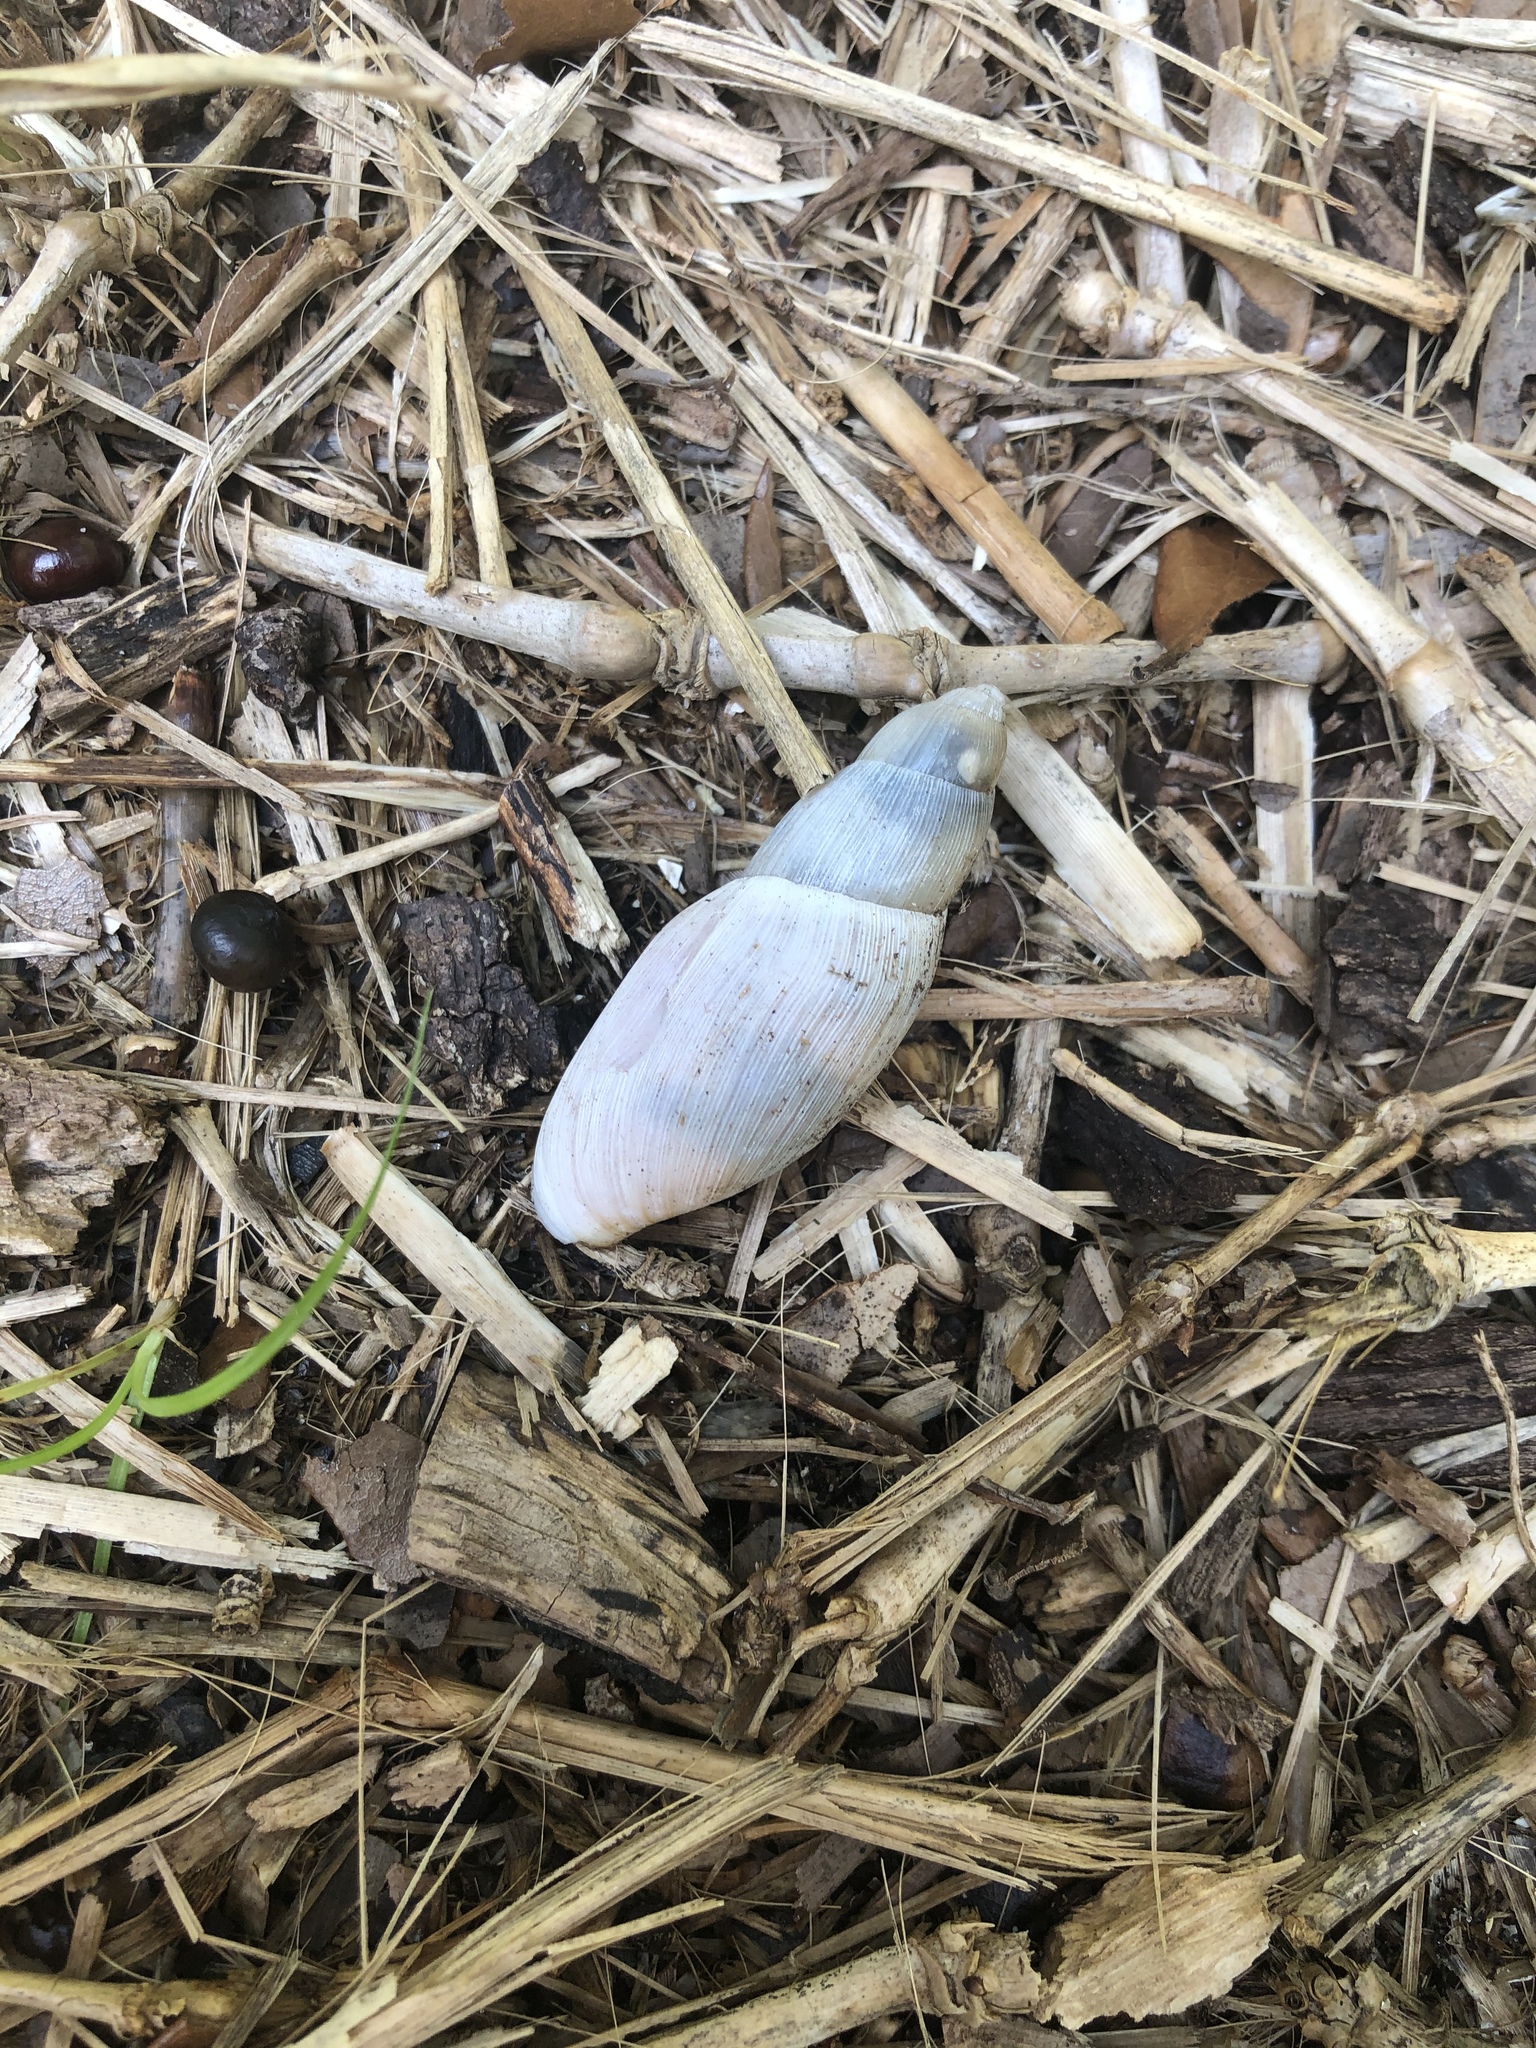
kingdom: Animalia
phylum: Mollusca
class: Gastropoda
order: Stylommatophora
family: Spiraxidae
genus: Euglandina
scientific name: Euglandina rosea
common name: Rosy wolfsnail
